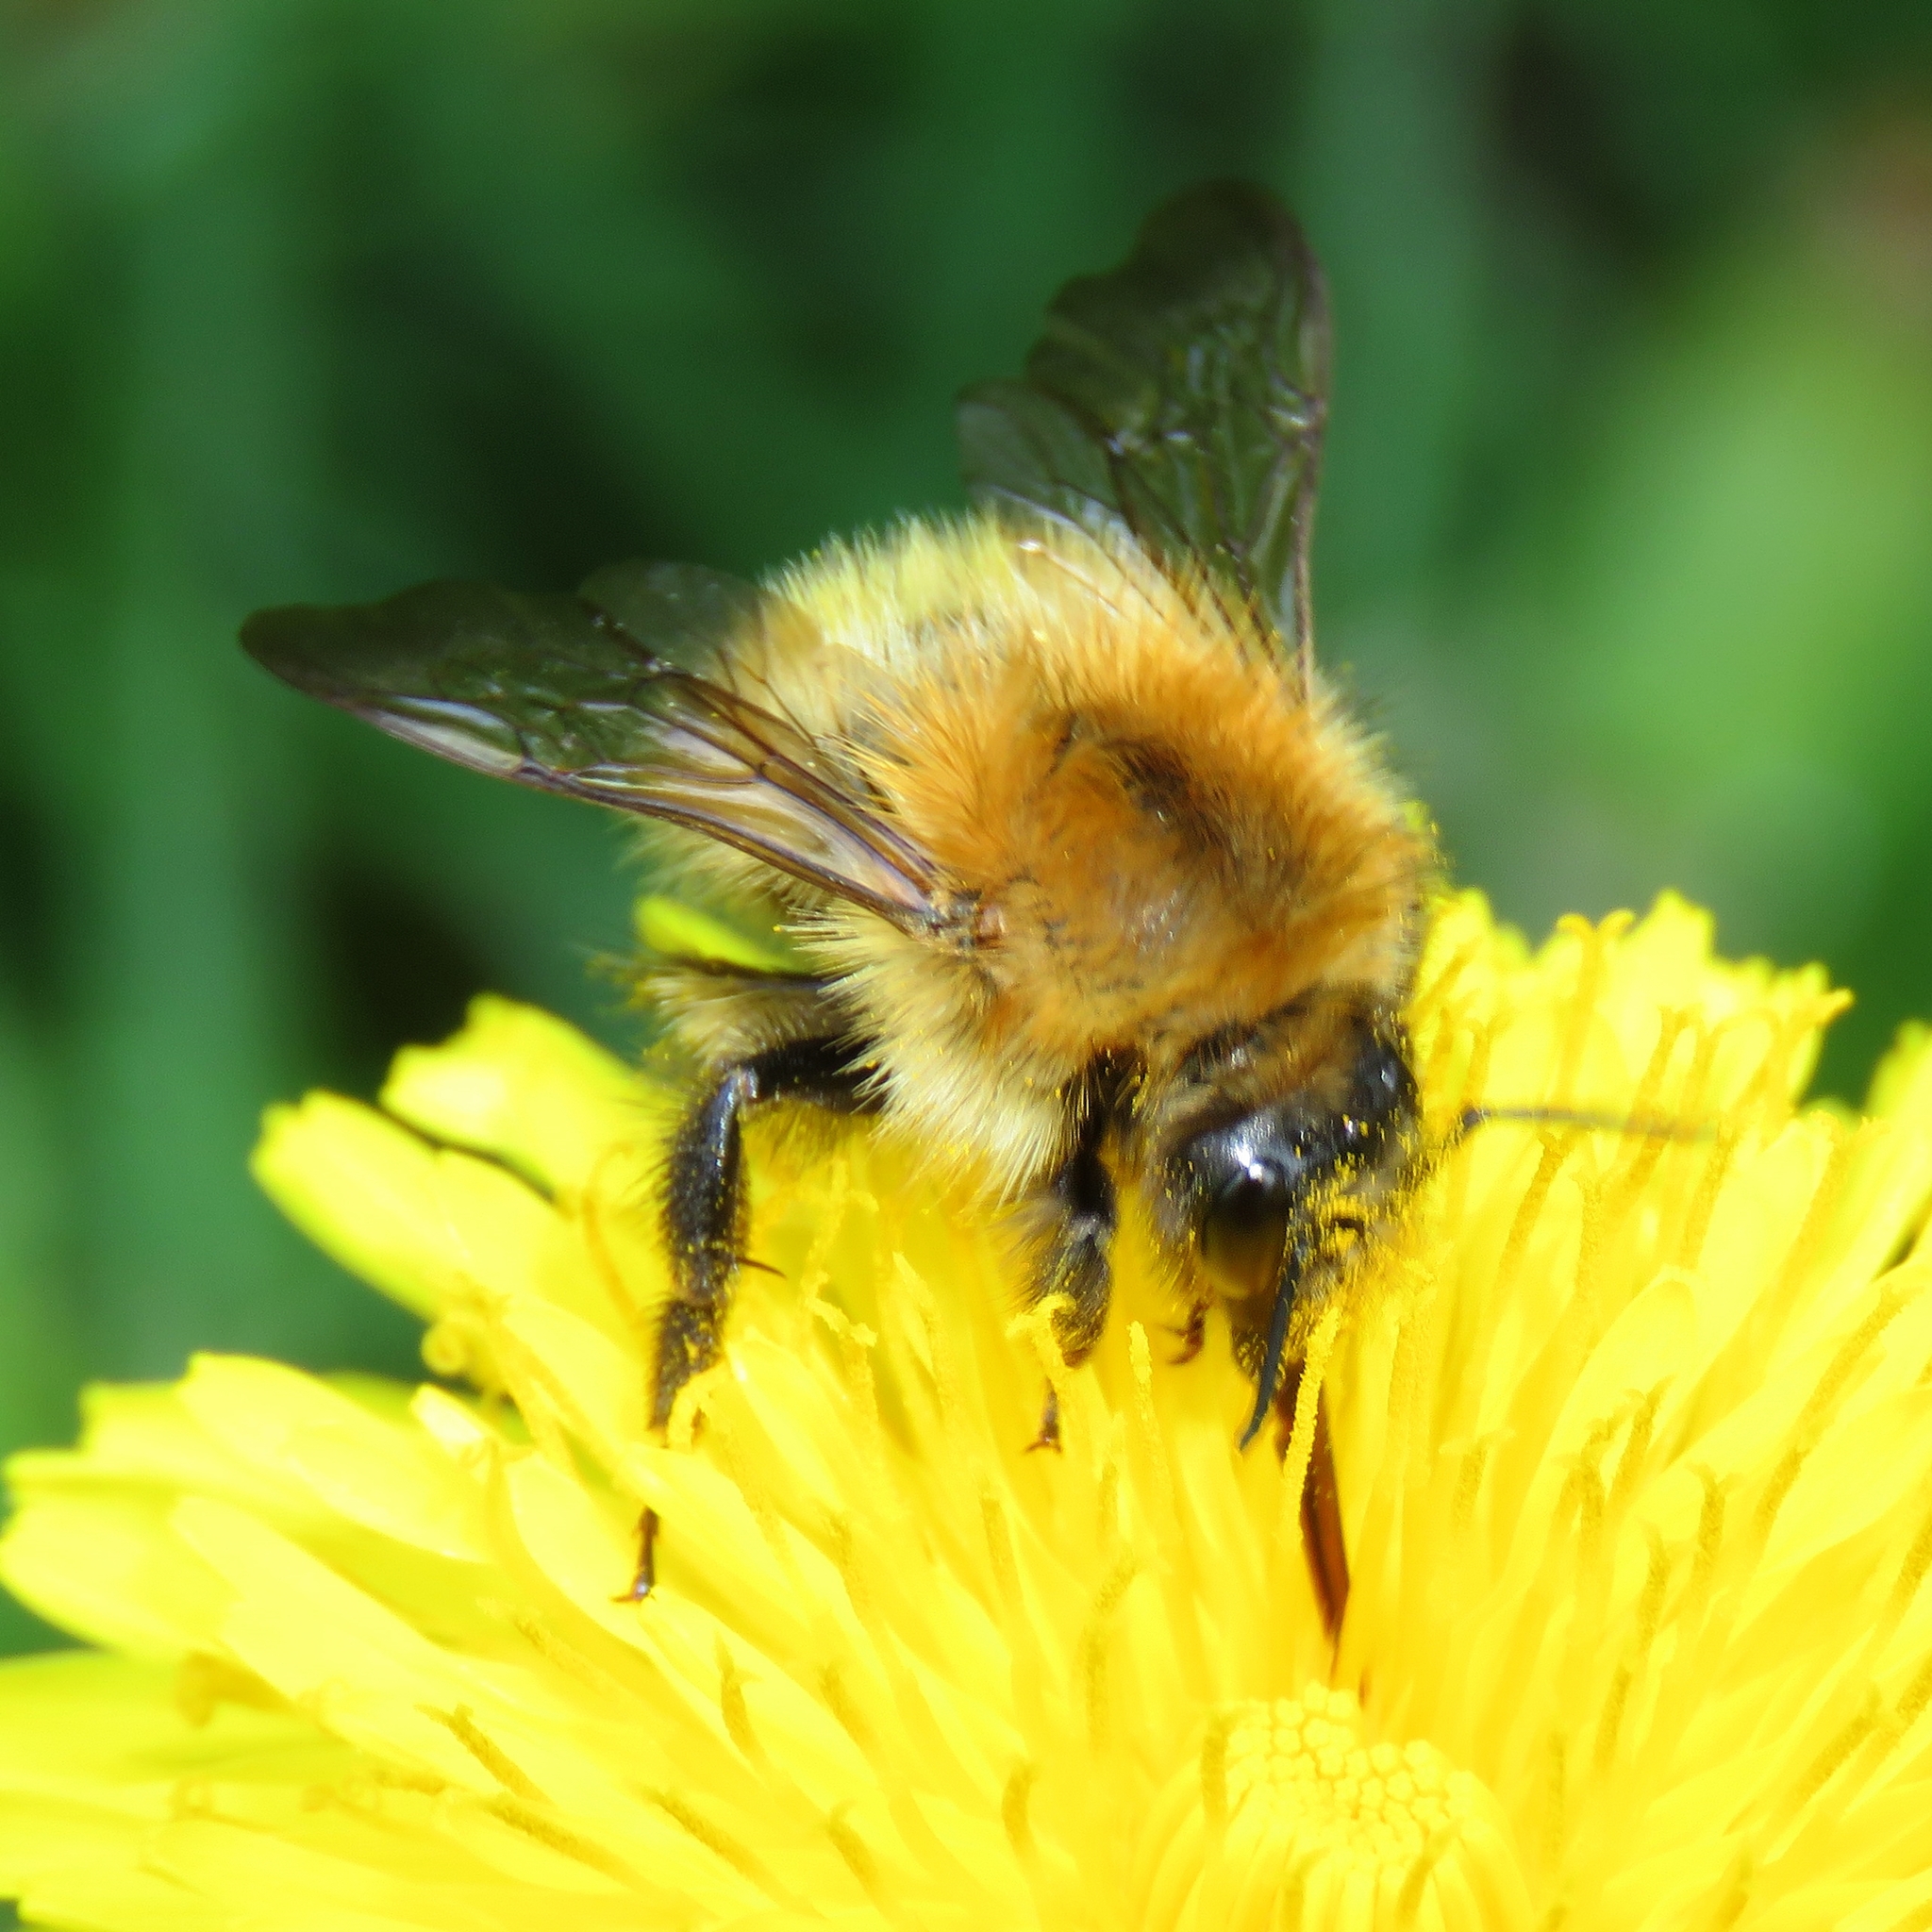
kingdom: Animalia
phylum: Arthropoda
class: Insecta
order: Hymenoptera
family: Apidae
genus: Bombus
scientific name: Bombus pascuorum
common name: Common carder bee
